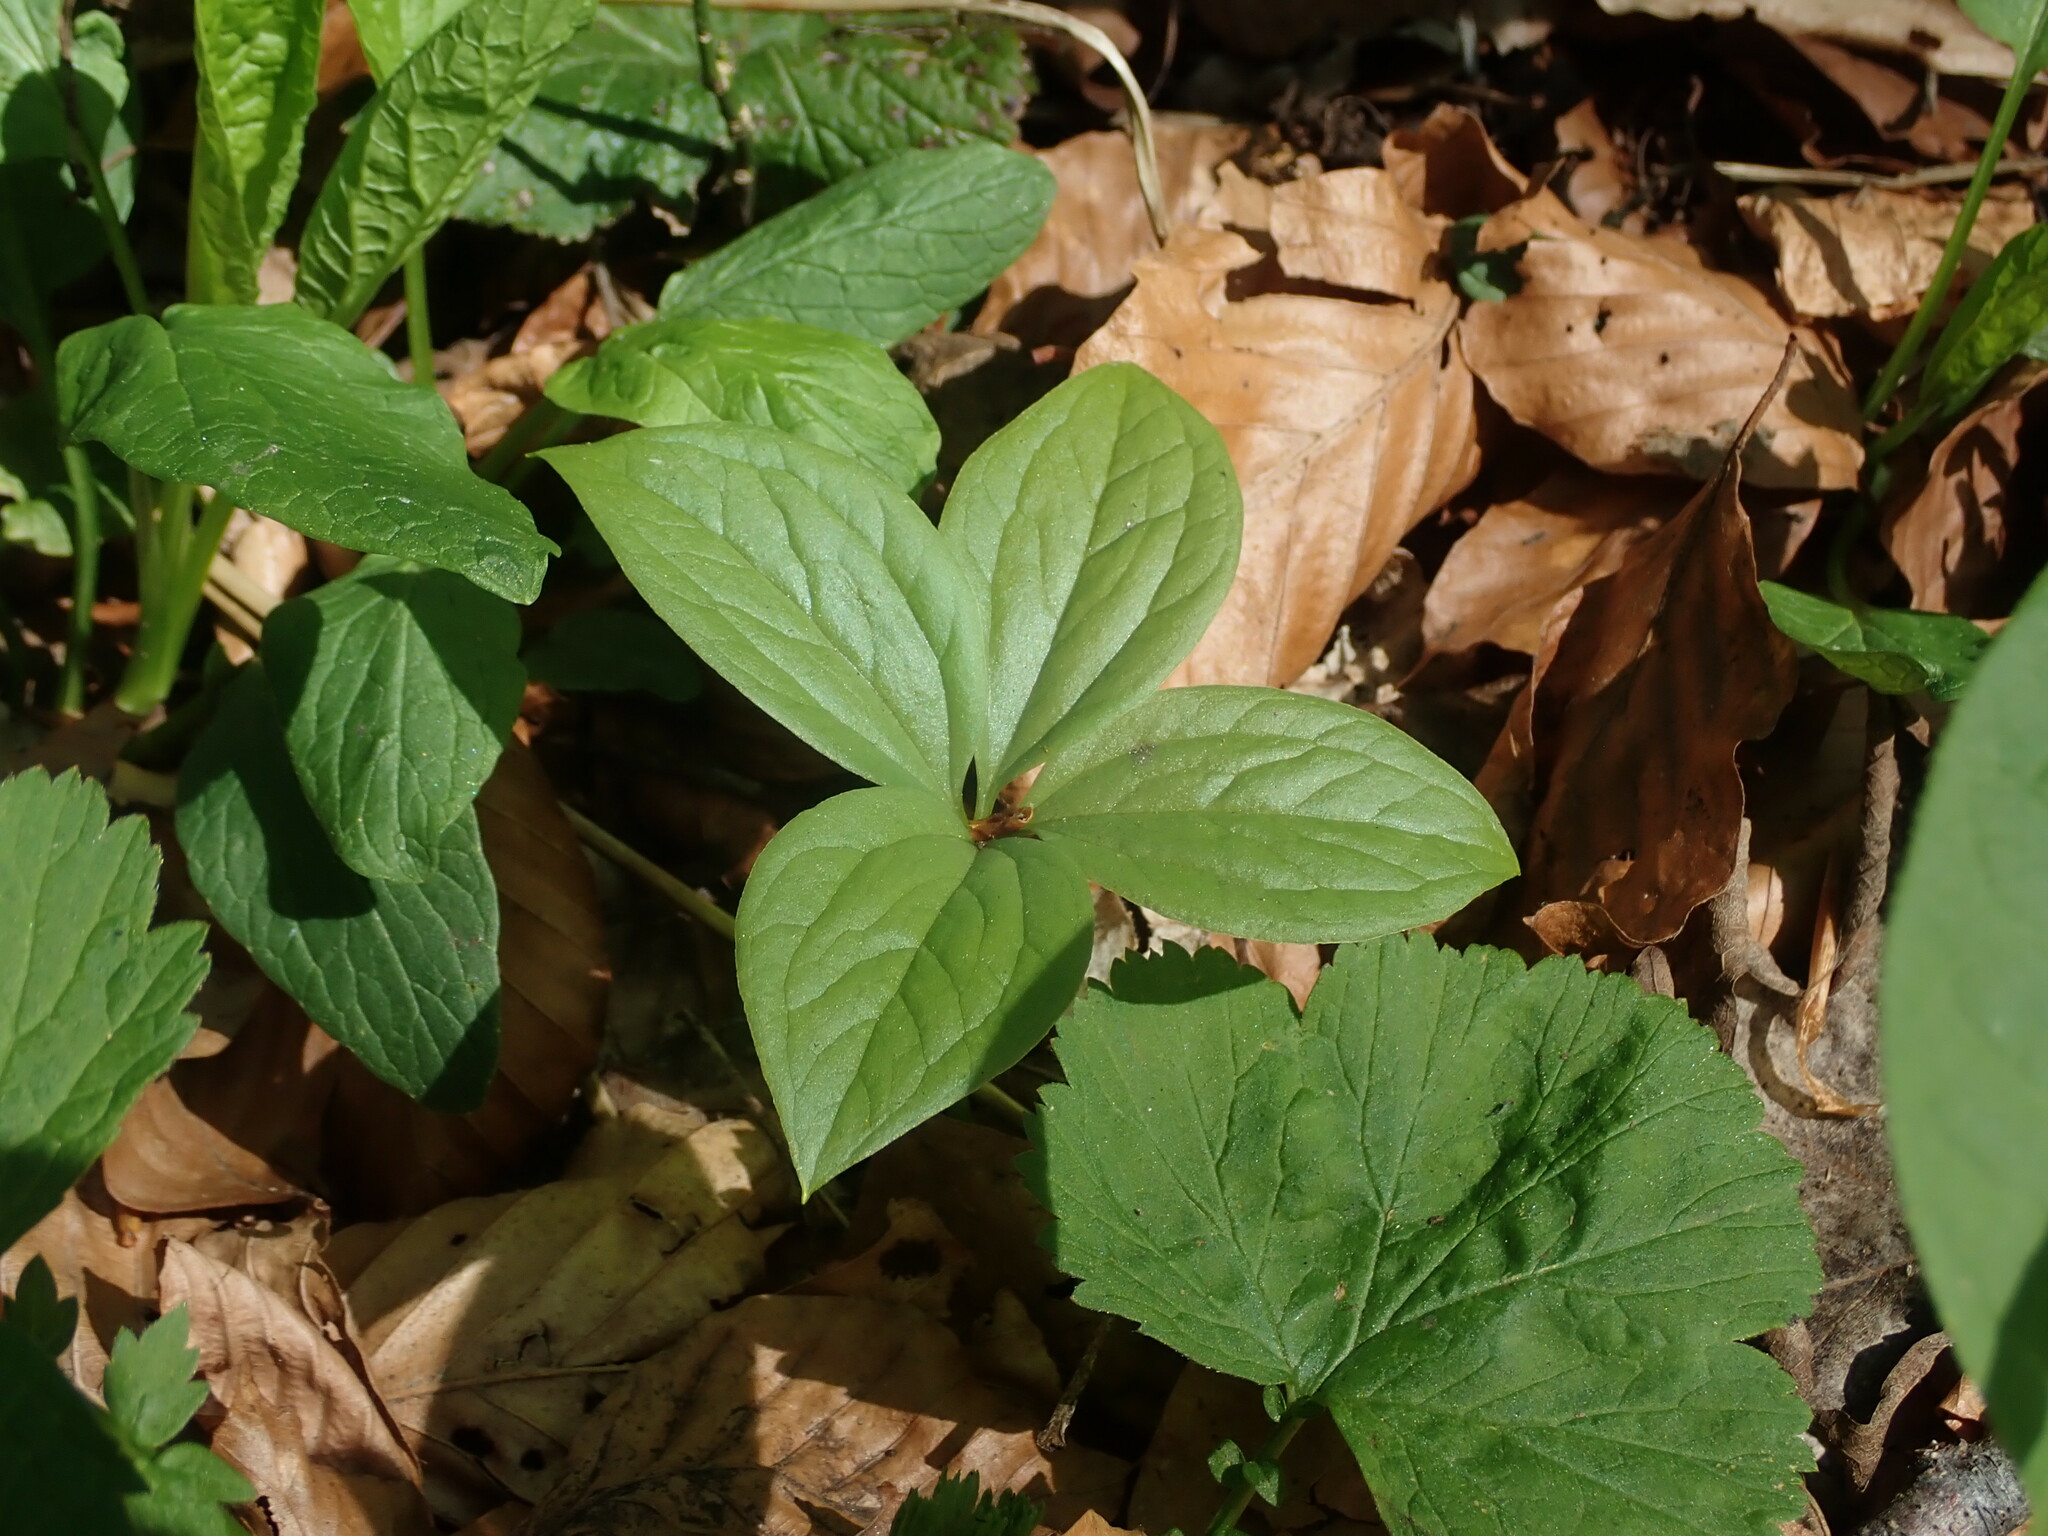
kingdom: Plantae
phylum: Tracheophyta
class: Liliopsida
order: Liliales
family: Melanthiaceae
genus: Paris
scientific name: Paris quadrifolia
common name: Herb-paris
